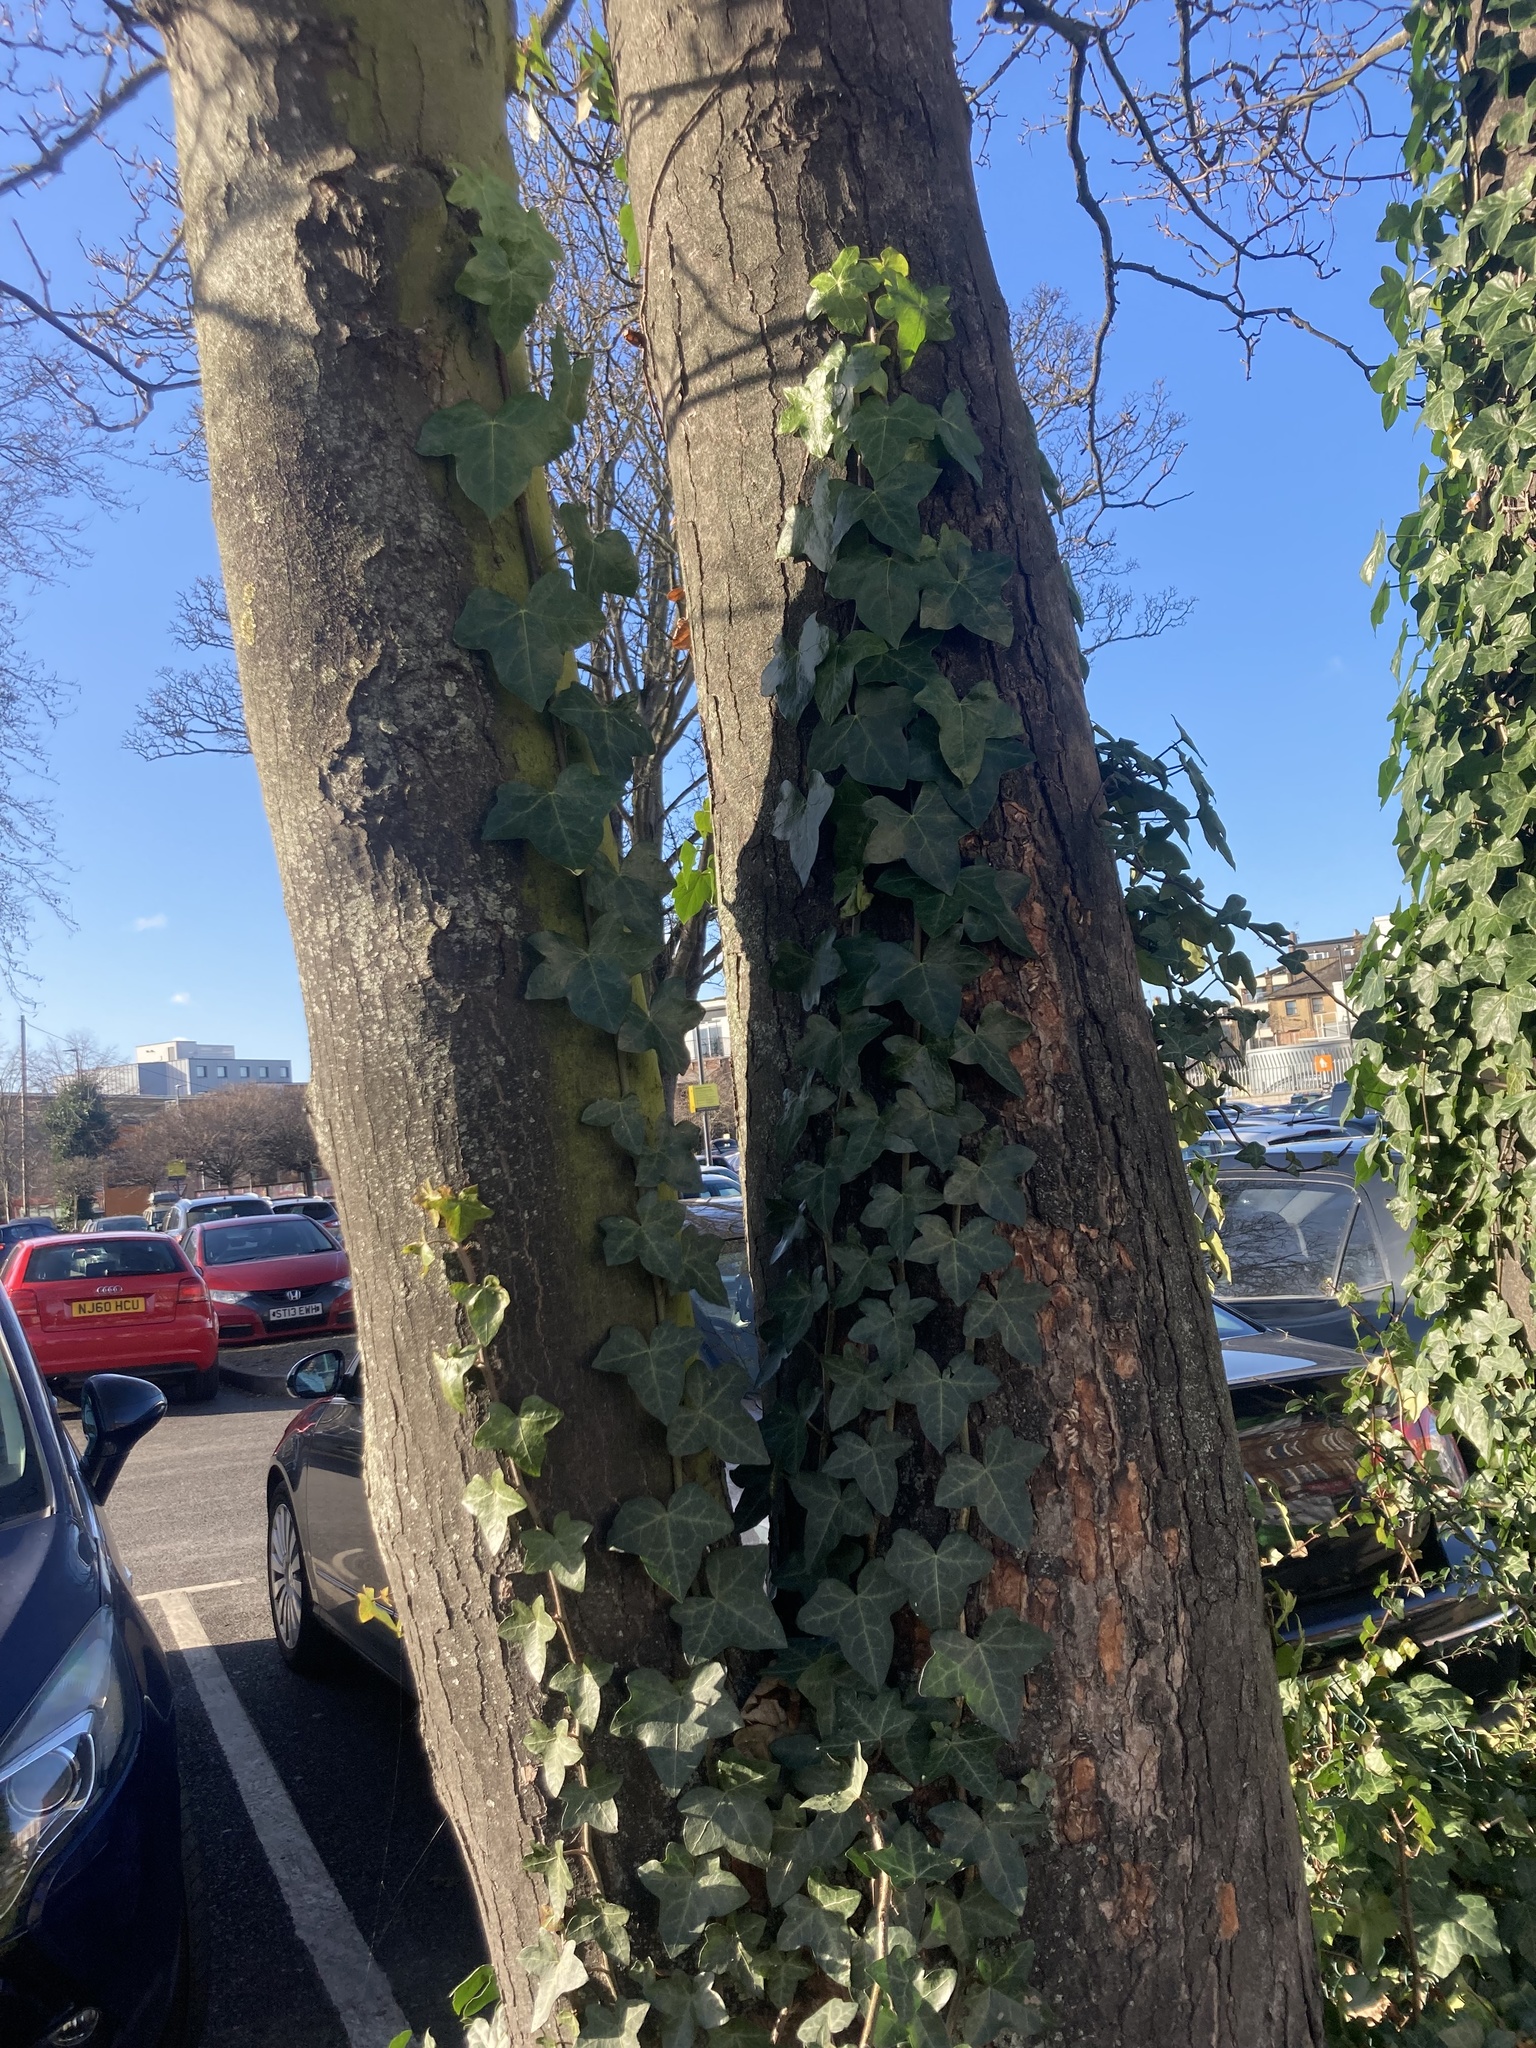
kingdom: Plantae
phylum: Tracheophyta
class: Magnoliopsida
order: Apiales
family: Araliaceae
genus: Hedera
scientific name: Hedera helix
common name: Ivy
